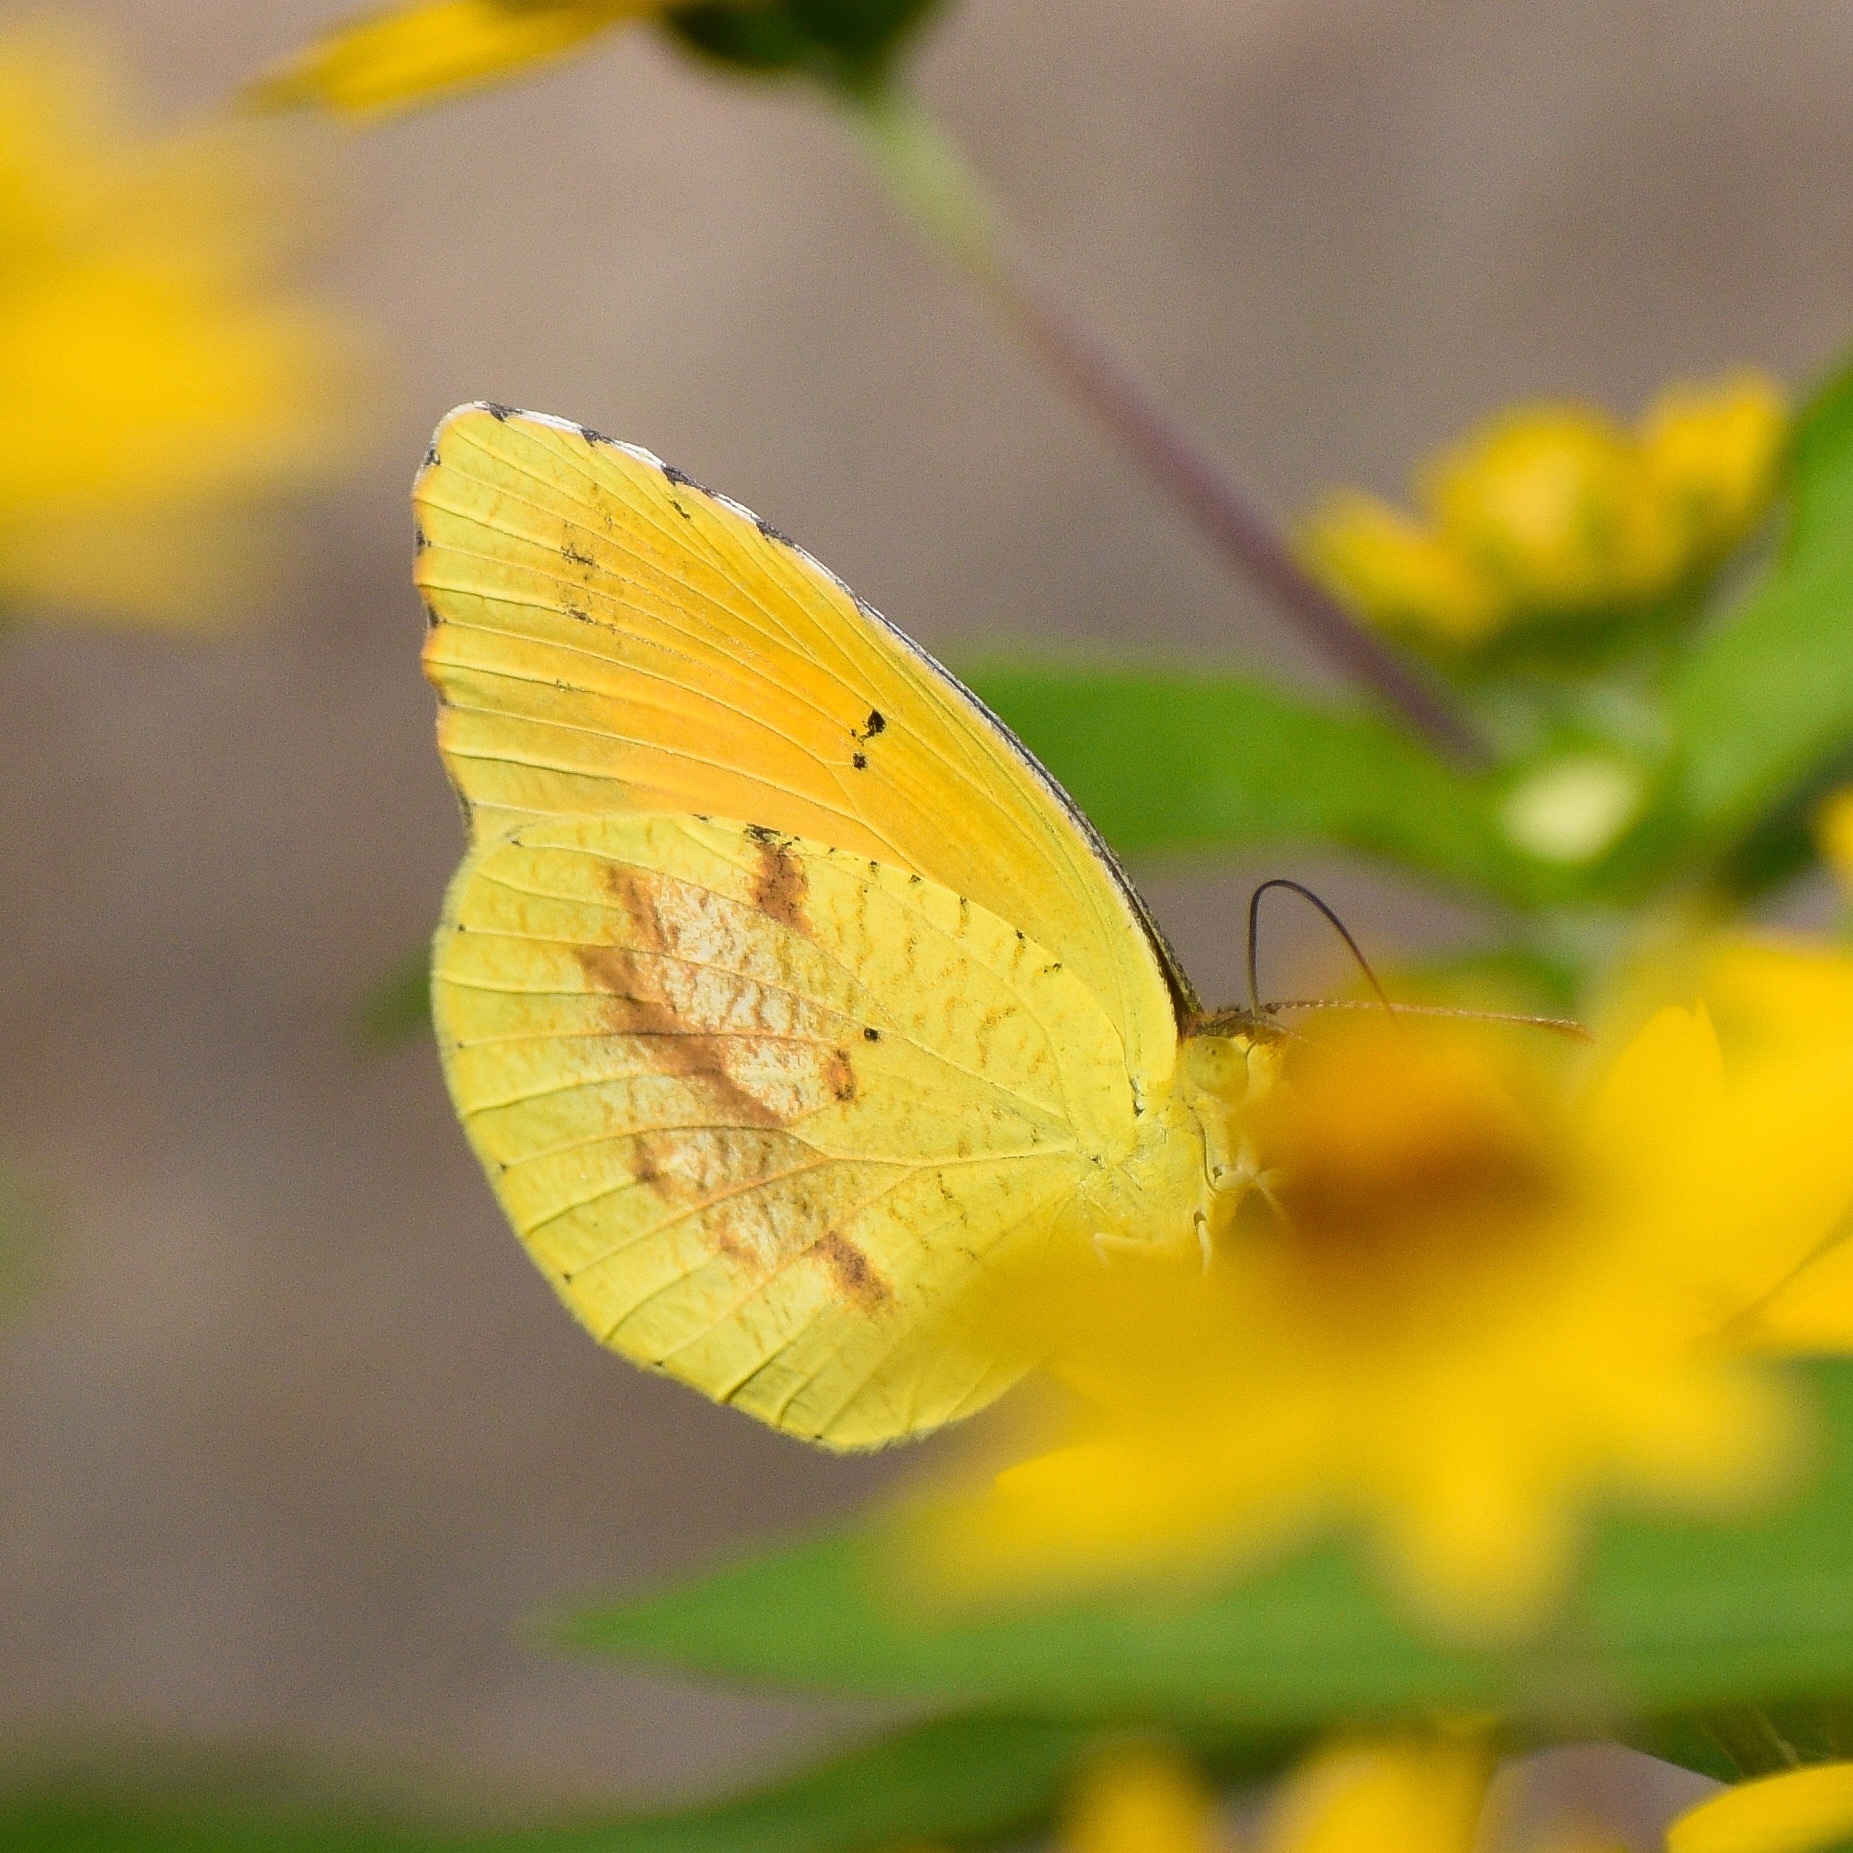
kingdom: Animalia
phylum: Arthropoda
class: Insecta
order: Lepidoptera
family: Pieridae
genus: Abaeis
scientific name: Abaeis nicippe
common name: Sleepy orange
